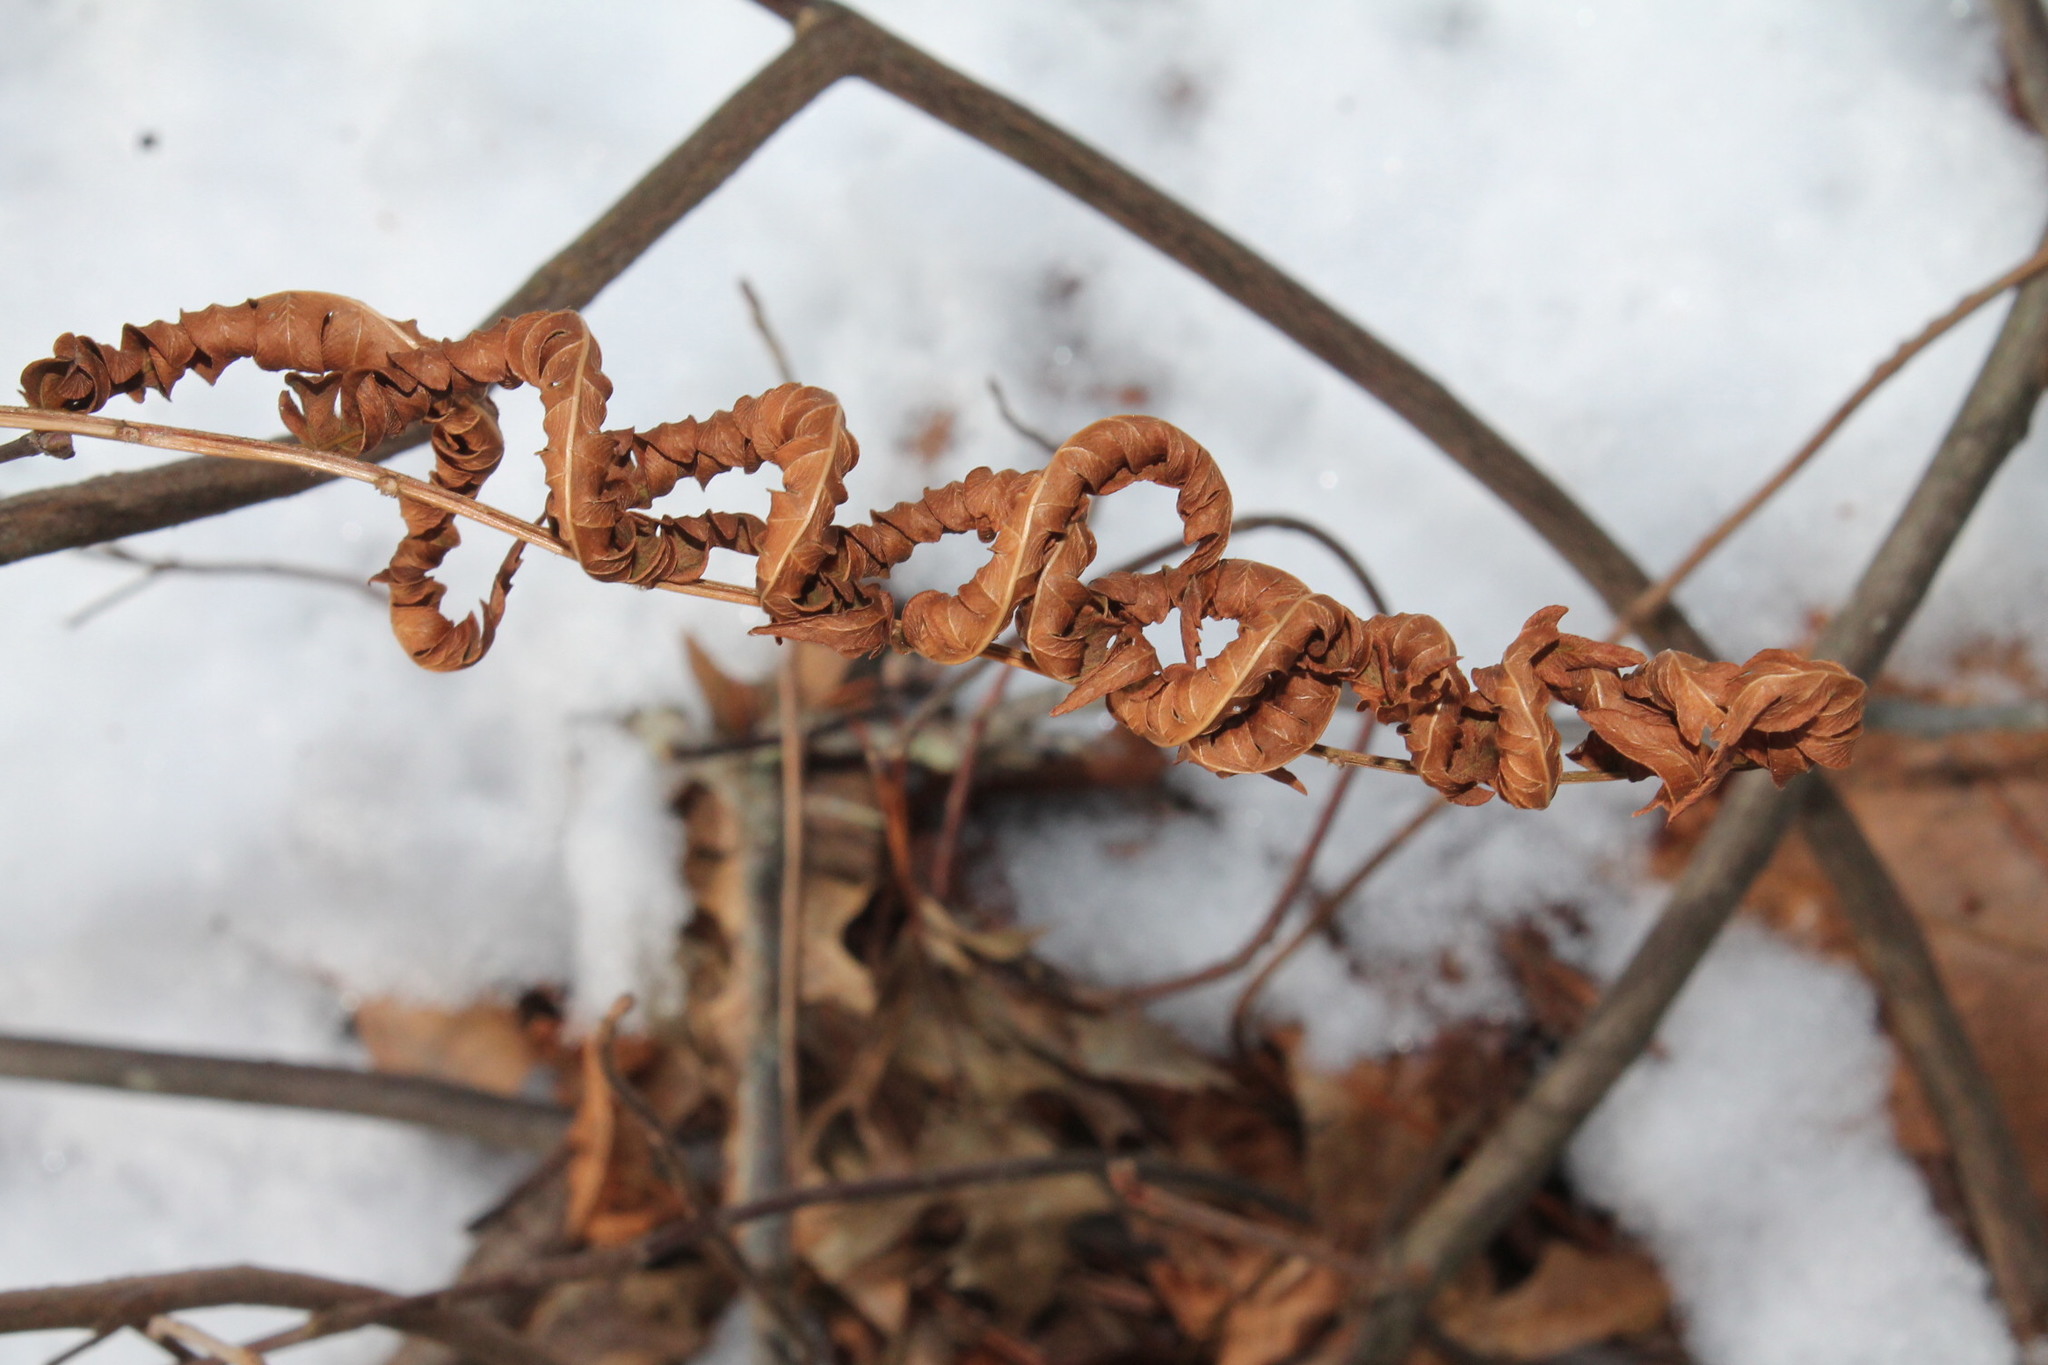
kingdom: Plantae
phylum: Tracheophyta
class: Polypodiopsida
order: Polypodiales
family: Dennstaedtiaceae
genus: Pteridium
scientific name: Pteridium aquilinum
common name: Bracken
